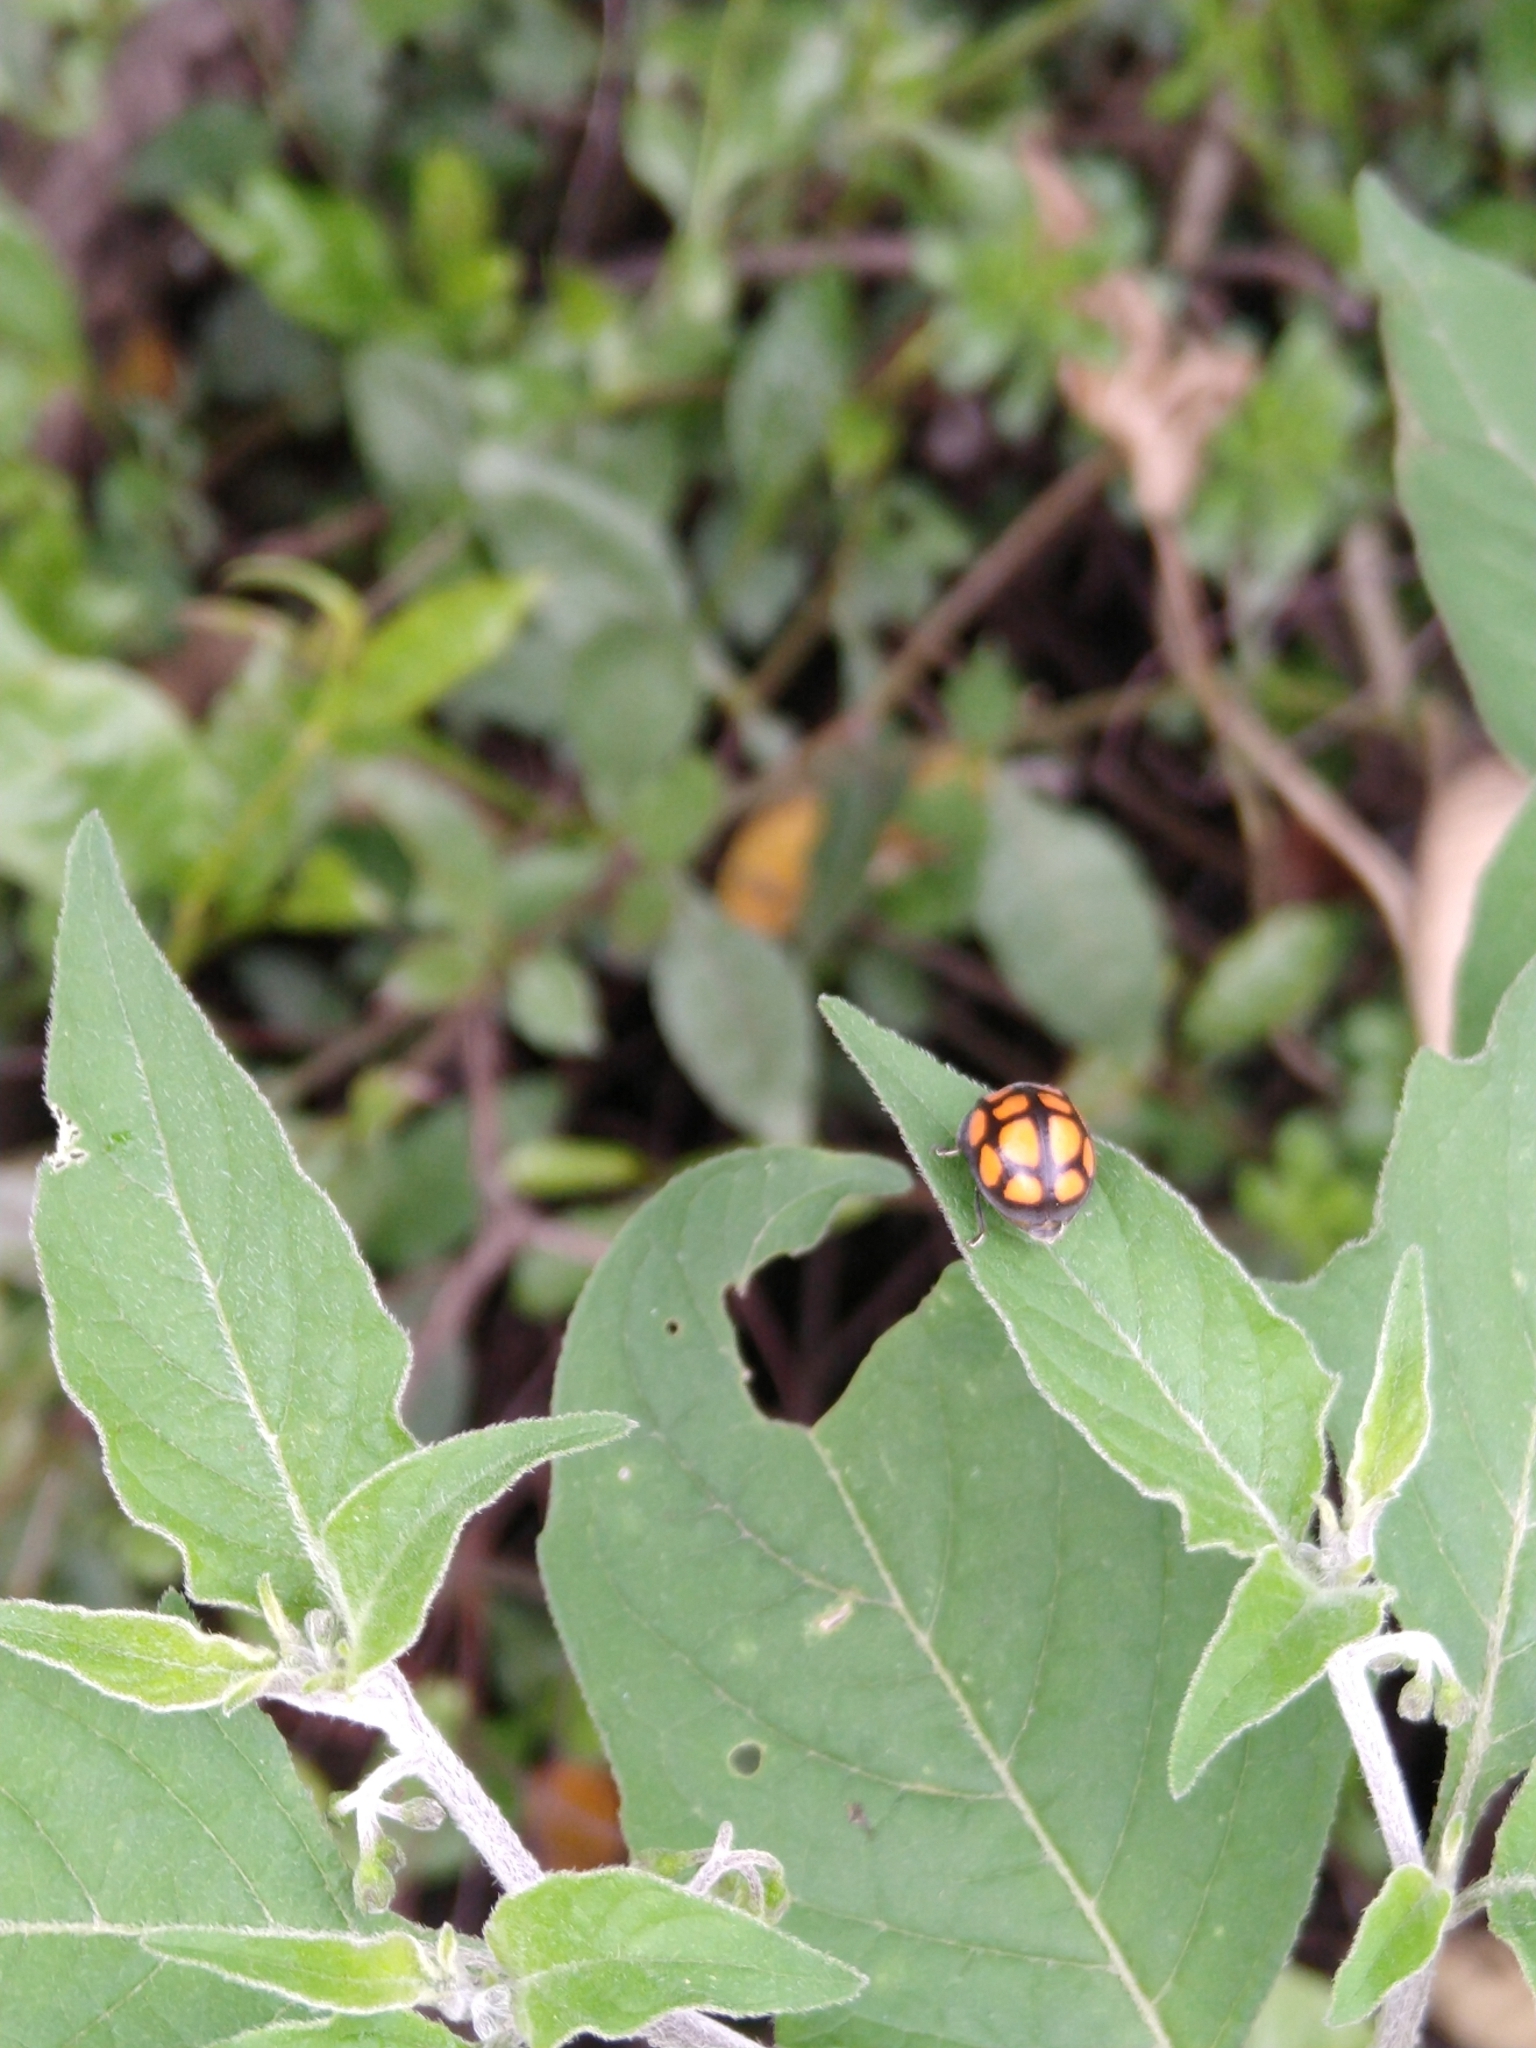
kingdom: Animalia
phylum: Arthropoda
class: Insecta
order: Coleoptera
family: Coccinellidae
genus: Epilachna
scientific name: Epilachna
